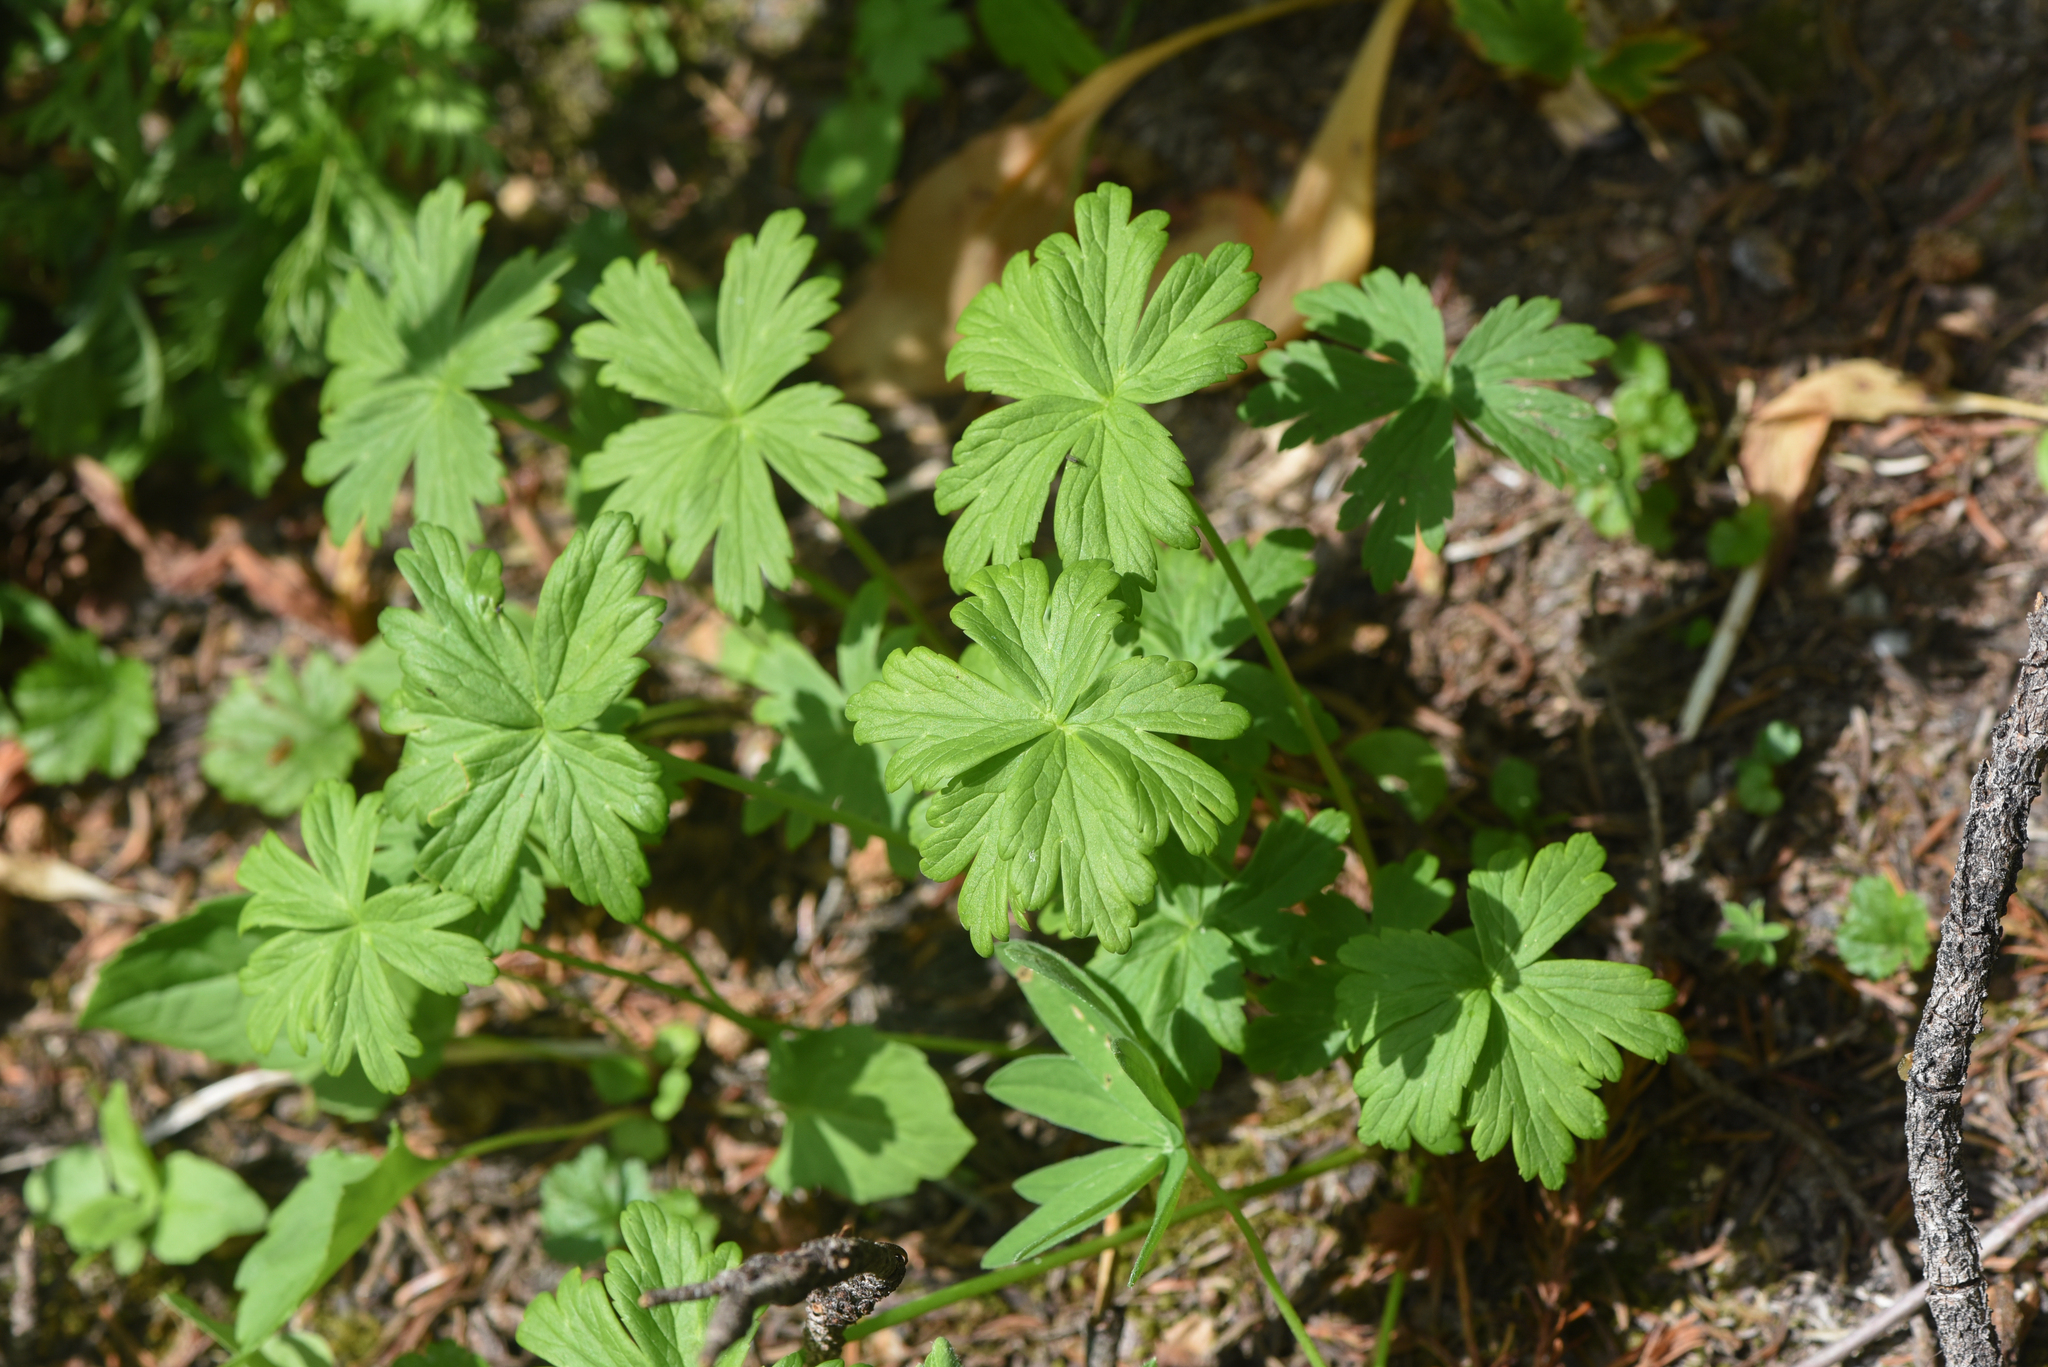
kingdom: Plantae
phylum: Tracheophyta
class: Magnoliopsida
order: Ranunculales
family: Ranunculaceae
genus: Trollius
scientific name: Trollius laxus
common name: American globeflower
